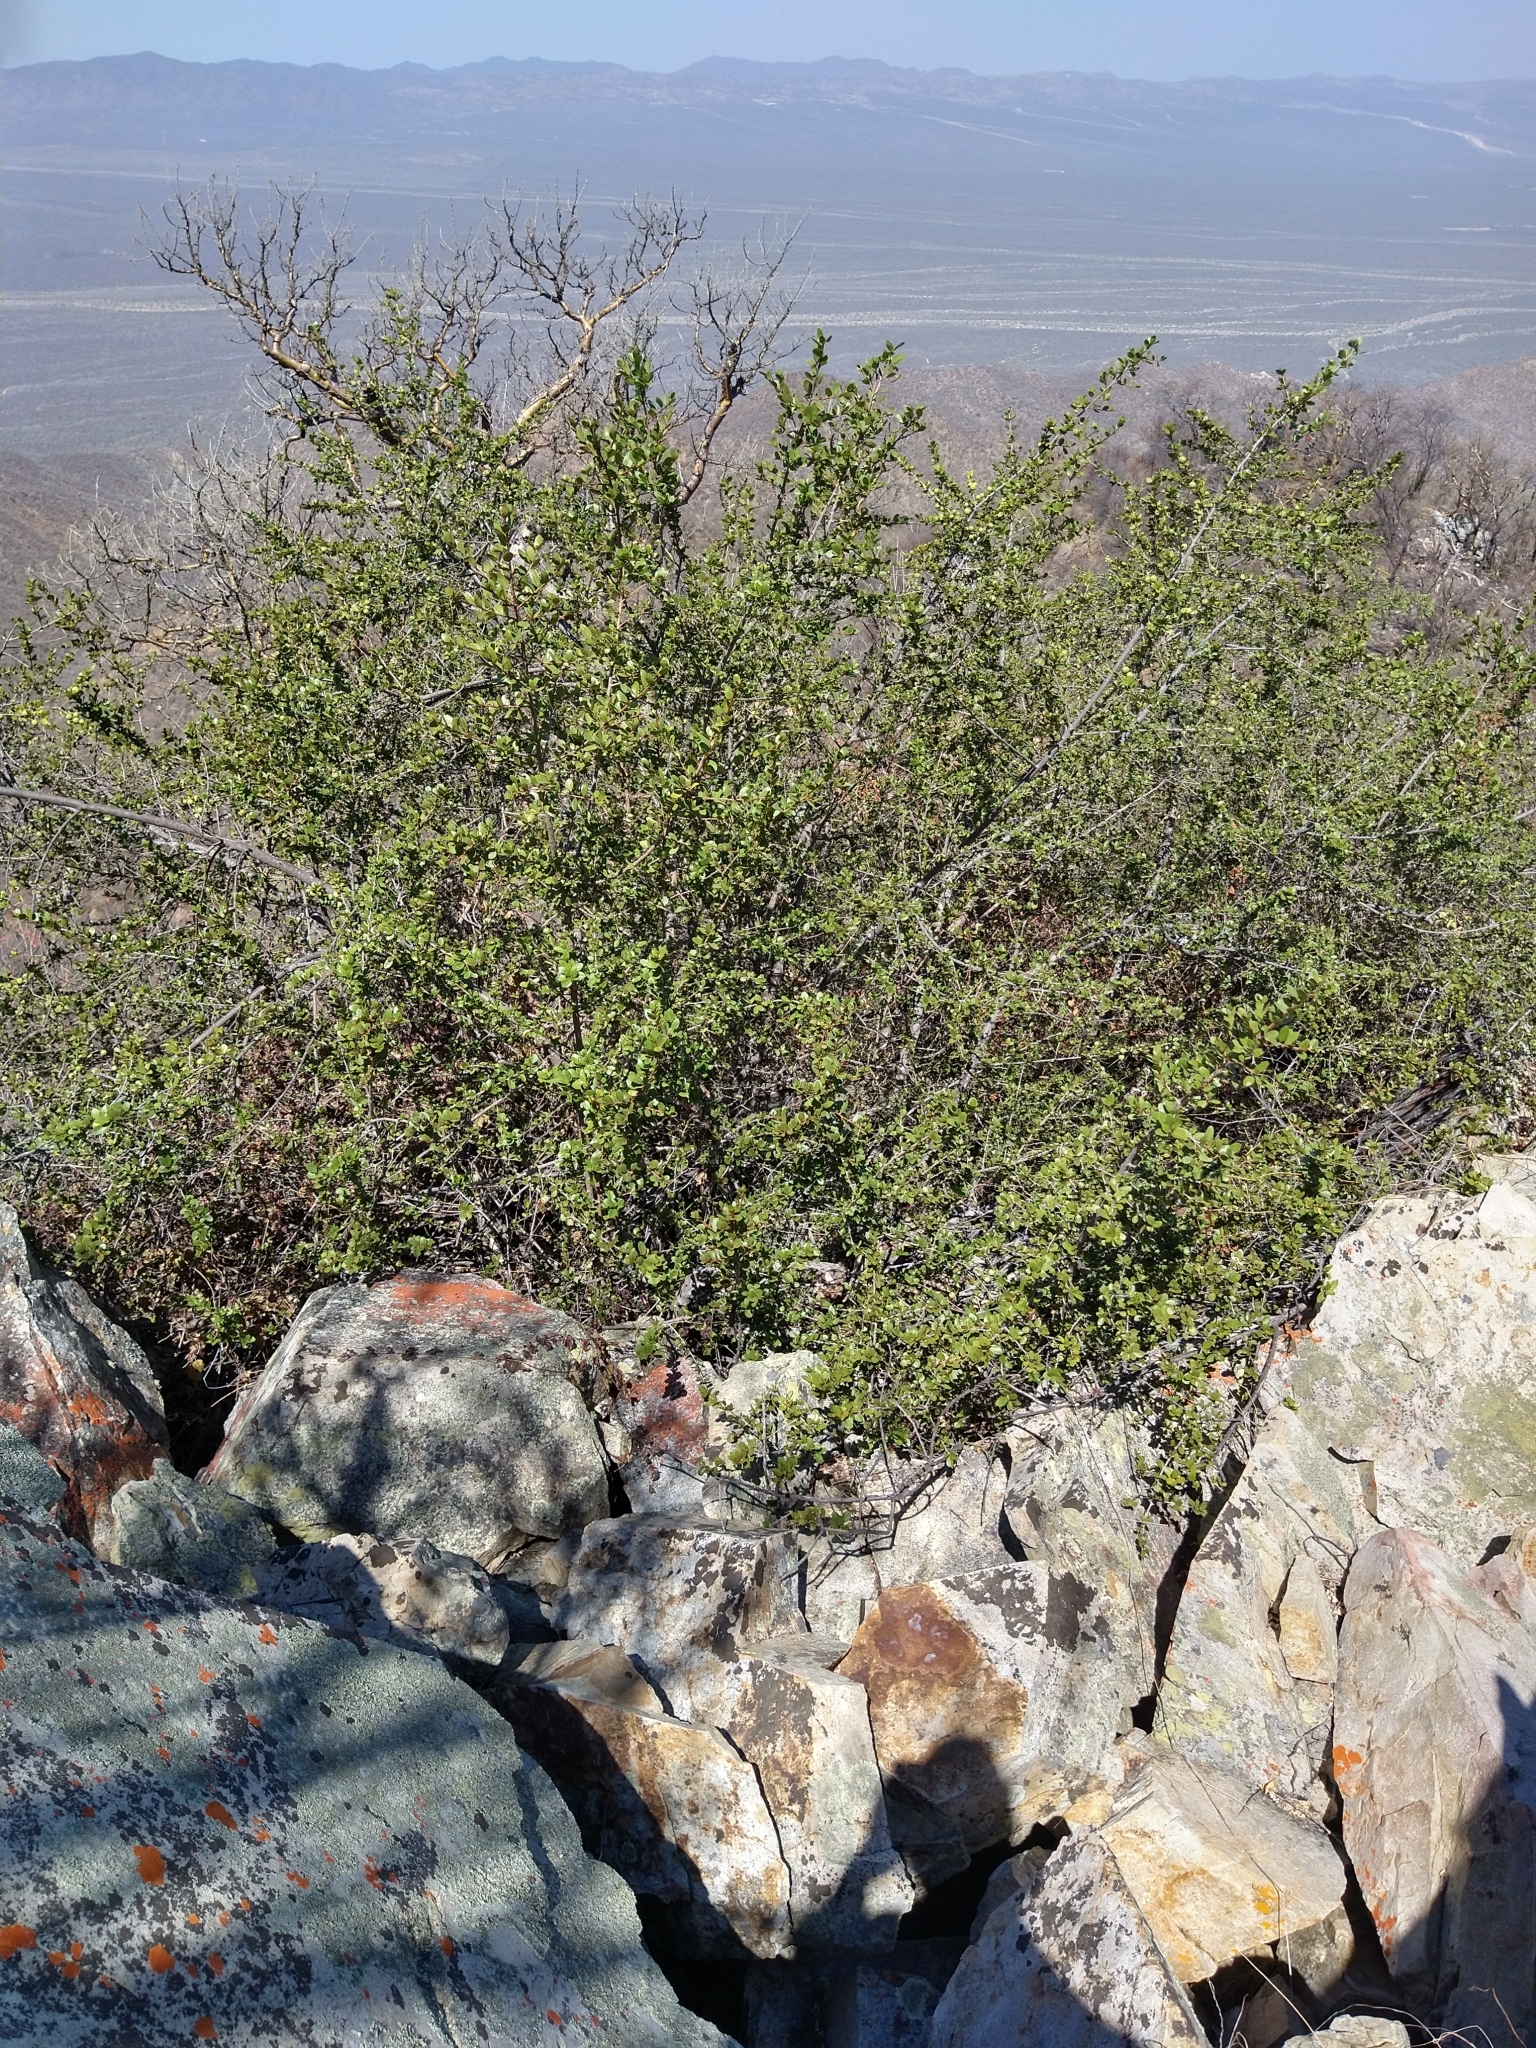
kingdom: Plantae
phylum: Tracheophyta
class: Magnoliopsida
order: Ericales
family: Sapotaceae
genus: Sideroxylon
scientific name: Sideroxylon peninsulare
